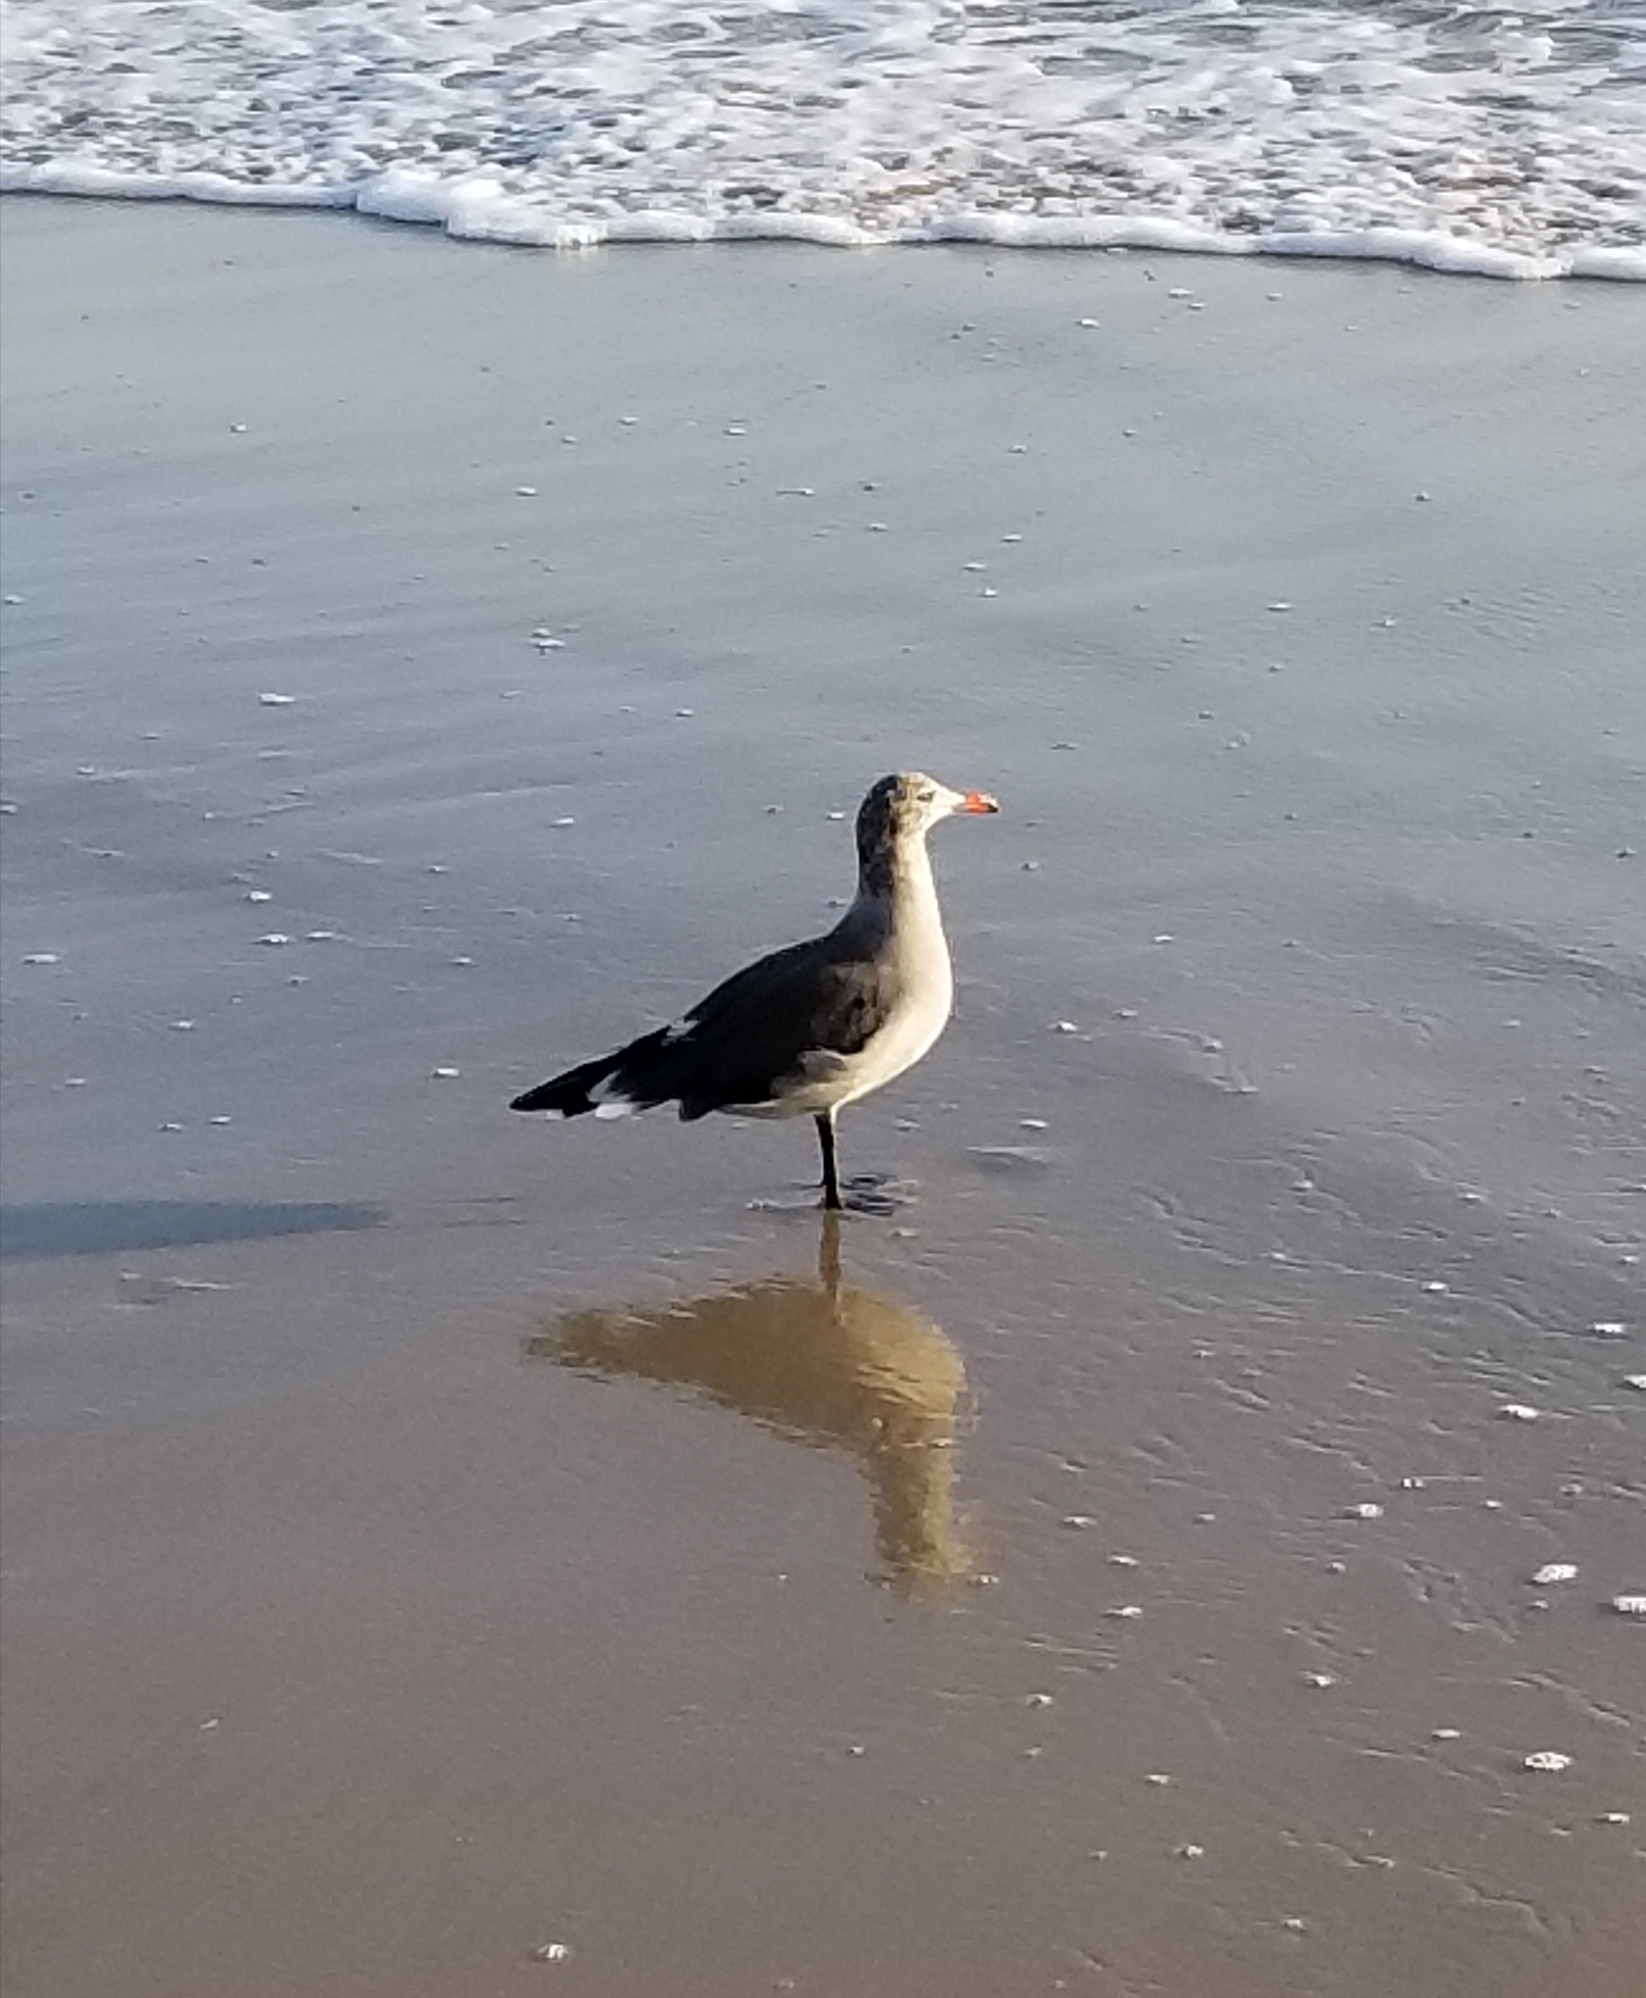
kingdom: Animalia
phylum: Chordata
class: Aves
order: Charadriiformes
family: Laridae
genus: Larus
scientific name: Larus heermanni
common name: Heermann's gull
